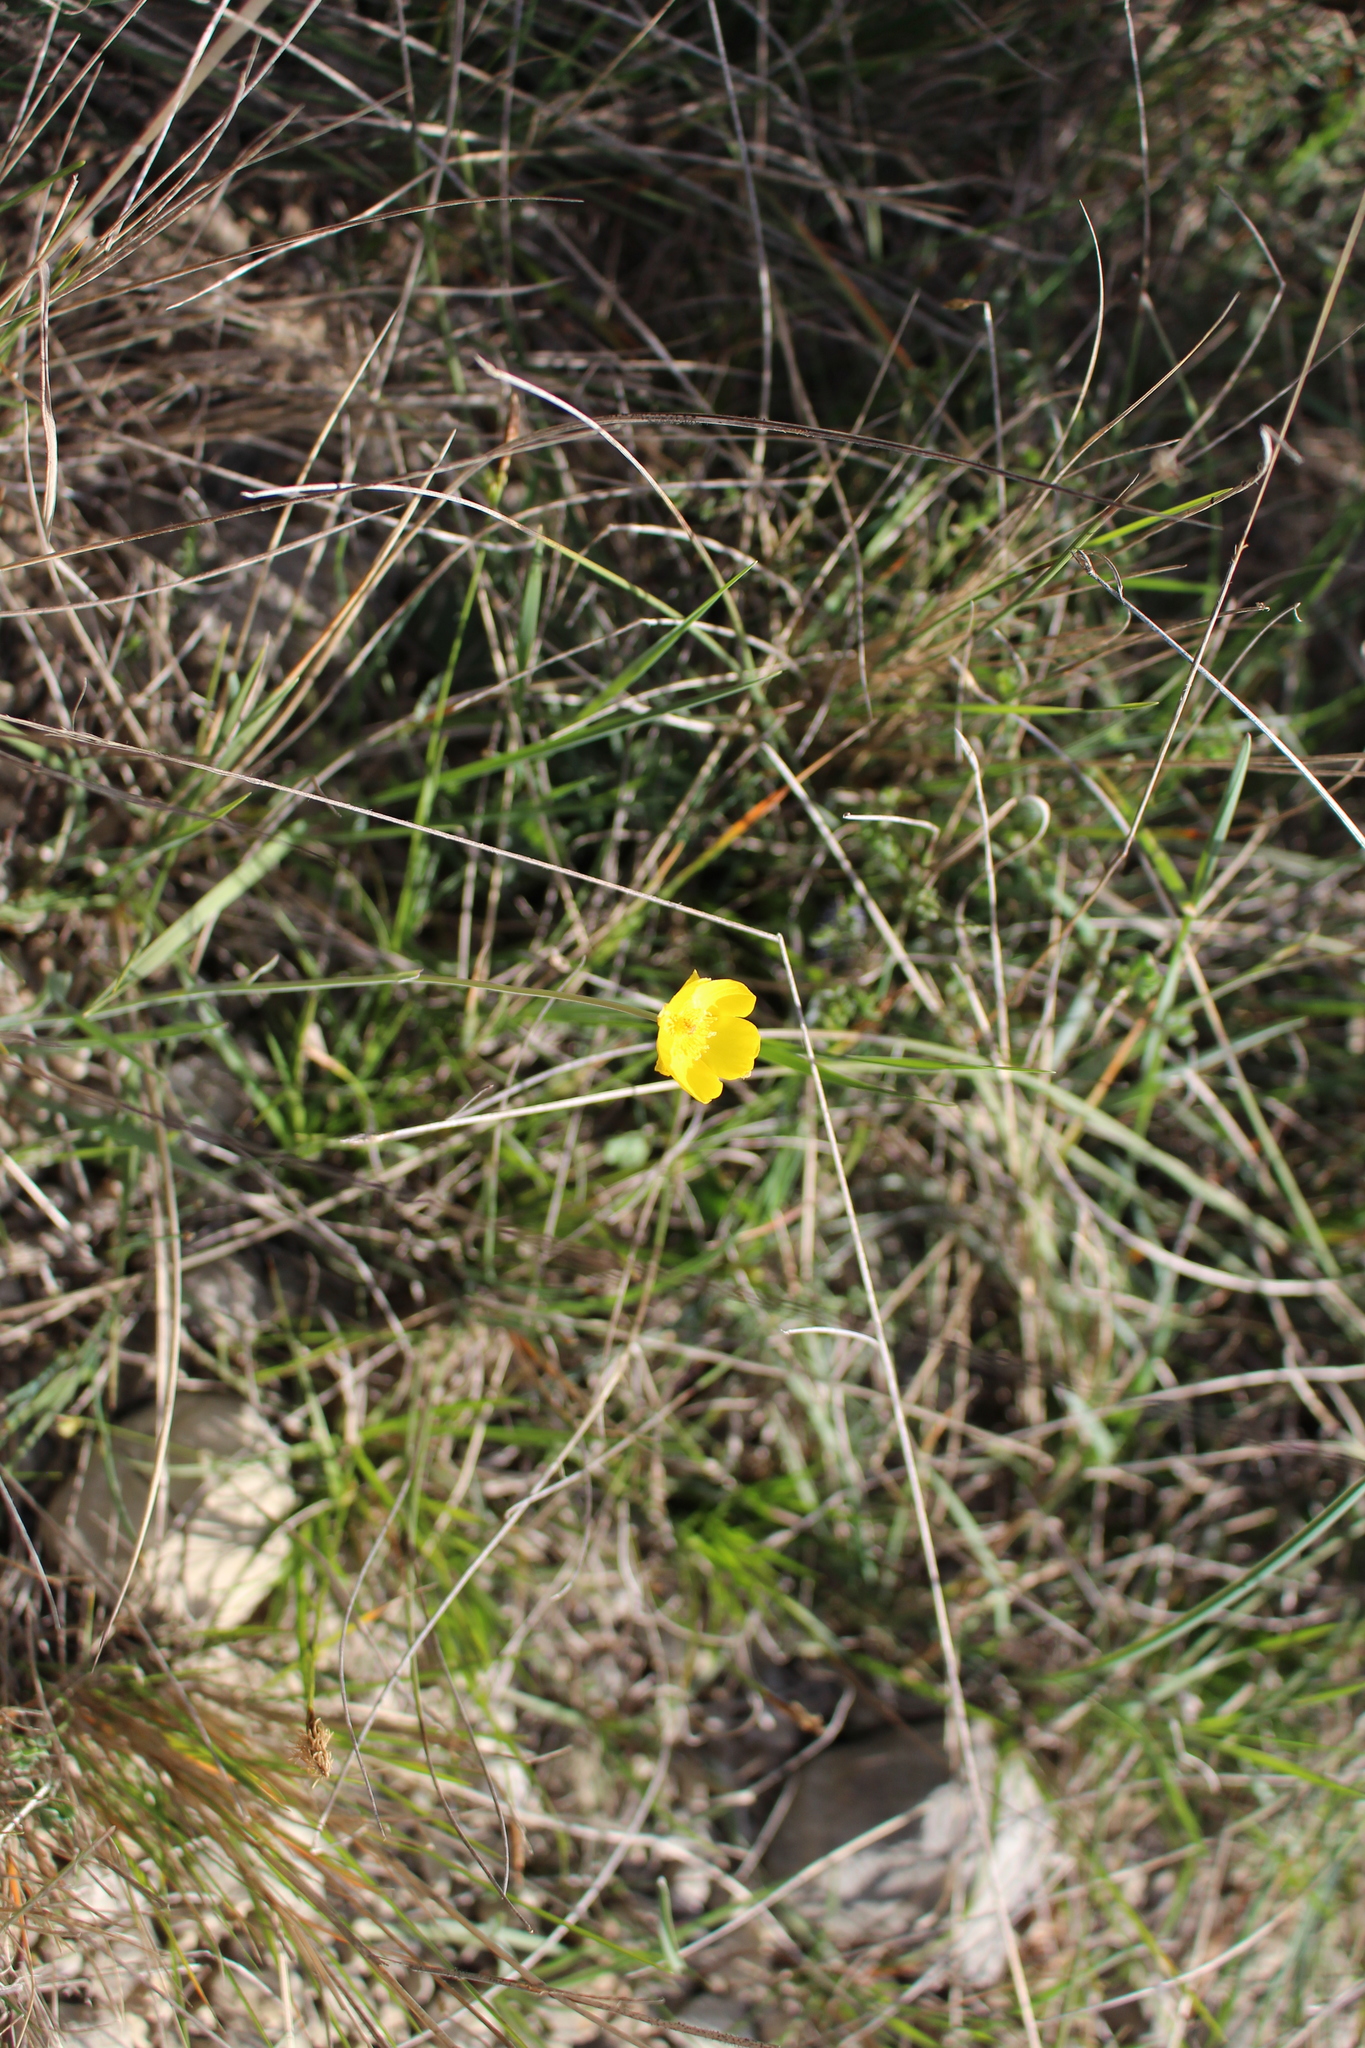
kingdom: Plantae
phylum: Tracheophyta
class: Magnoliopsida
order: Ranunculales
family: Ranunculaceae
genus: Ranunculus
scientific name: Ranunculus gramineus
